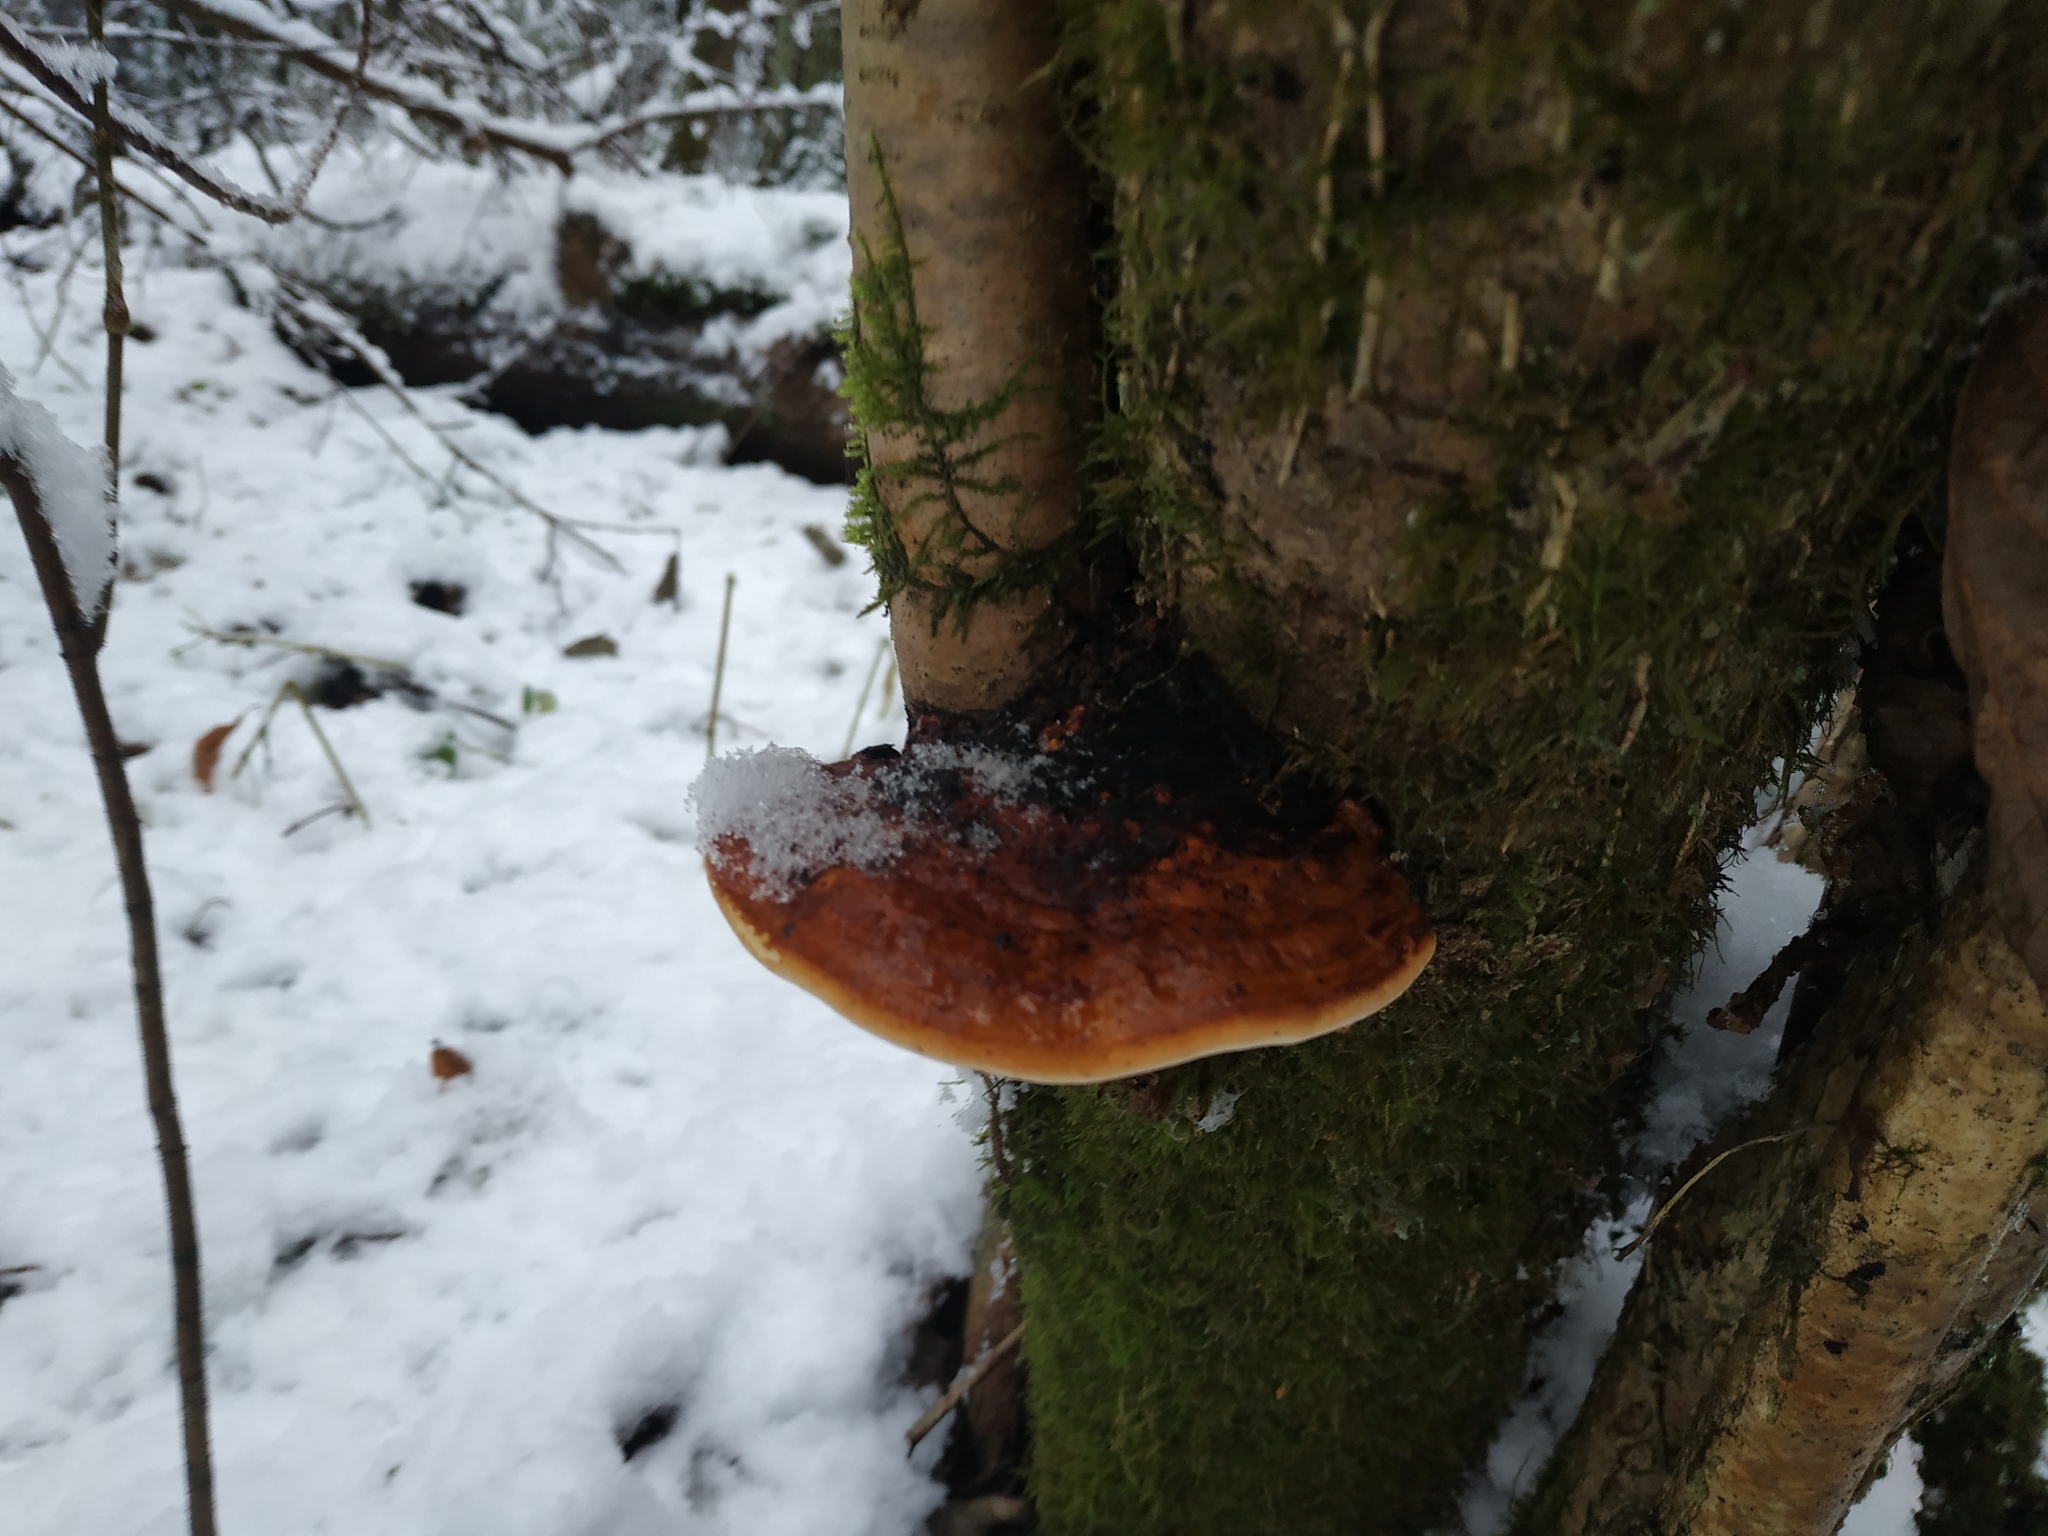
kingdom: Fungi
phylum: Basidiomycota
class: Agaricomycetes
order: Polyporales
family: Fomitopsidaceae
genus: Fomitopsis
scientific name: Fomitopsis pinicola
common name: Red-belted bracket
